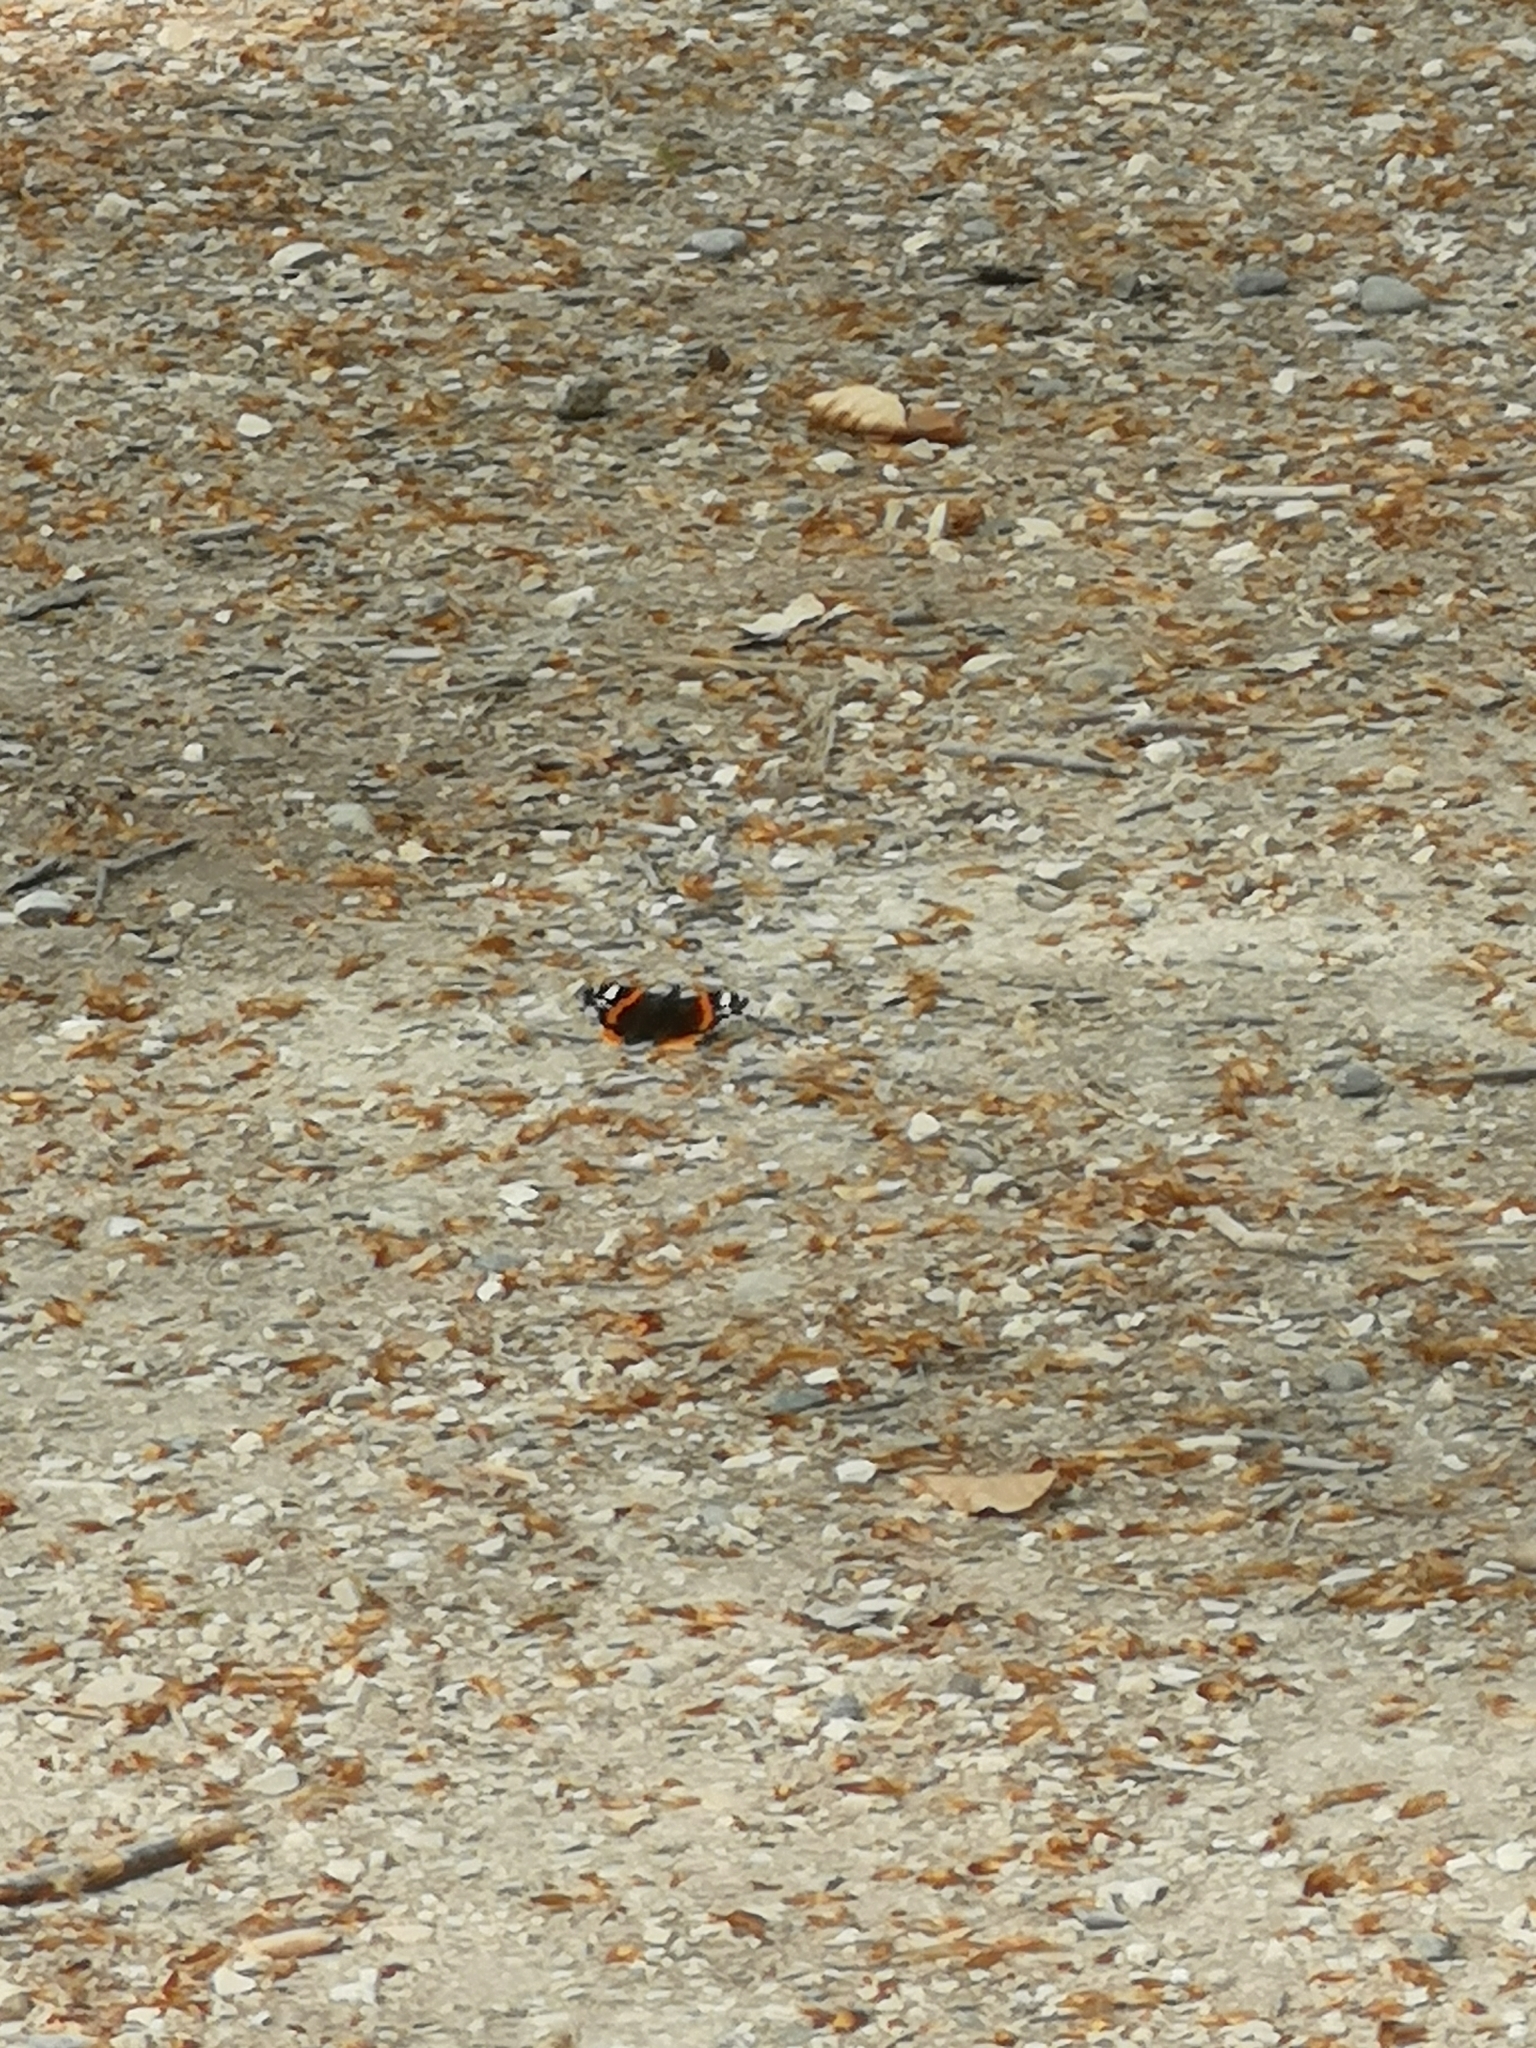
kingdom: Animalia
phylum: Arthropoda
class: Insecta
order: Lepidoptera
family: Nymphalidae
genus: Vanessa
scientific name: Vanessa atalanta
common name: Red admiral
